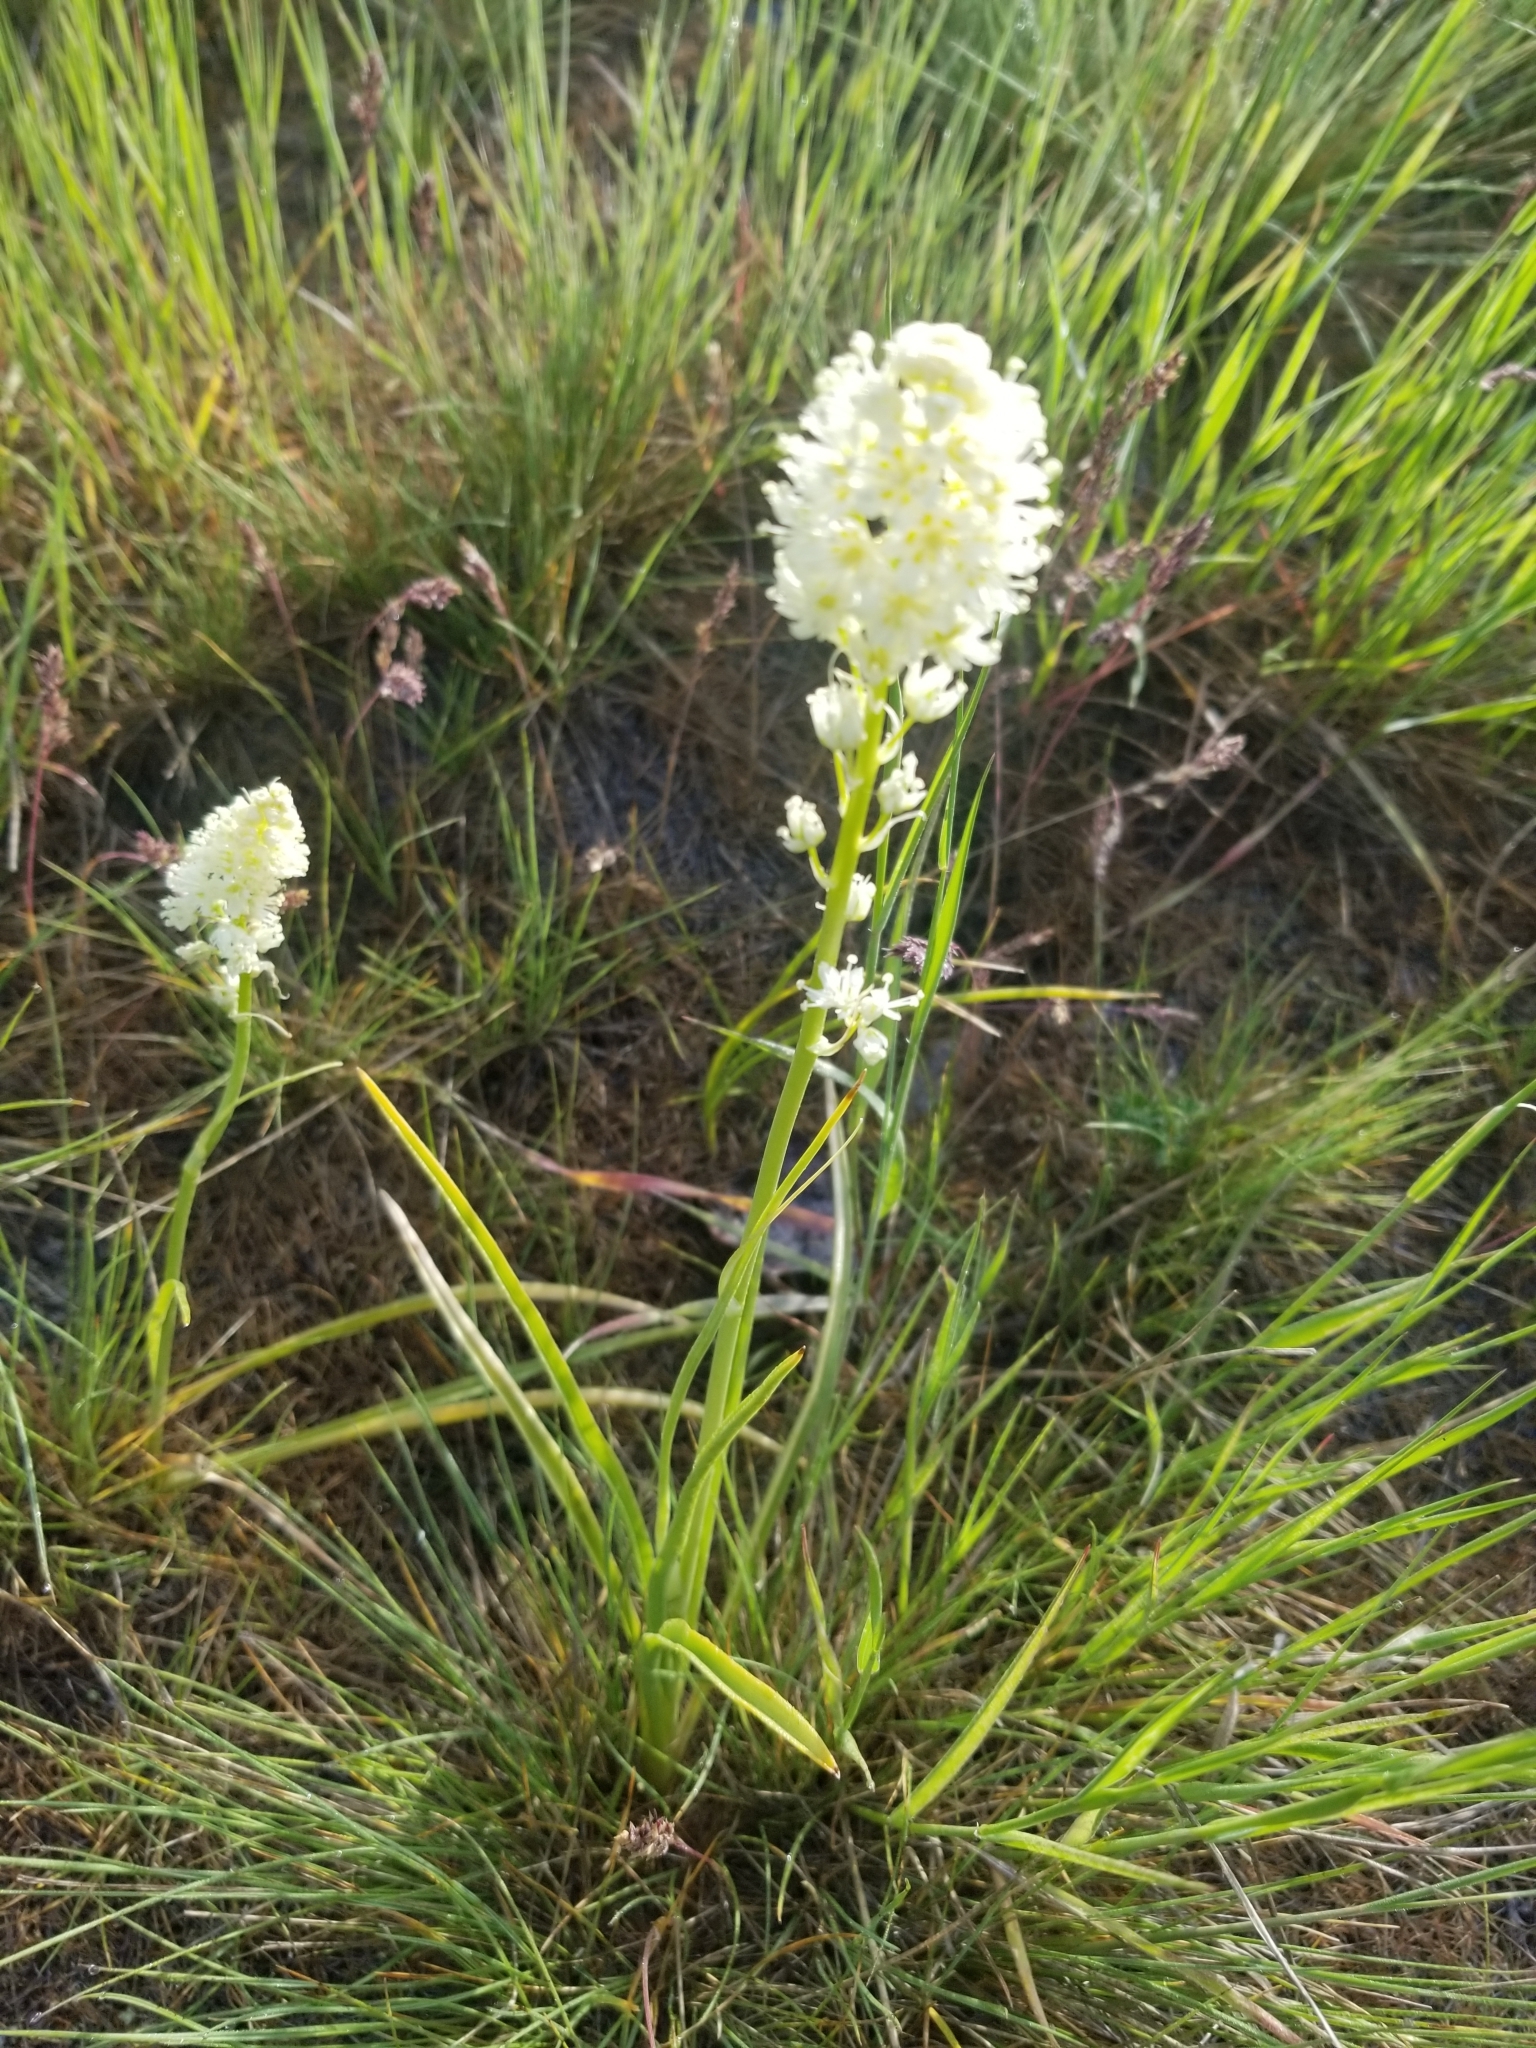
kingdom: Plantae
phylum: Tracheophyta
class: Liliopsida
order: Liliales
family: Melanthiaceae
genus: Toxicoscordion
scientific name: Toxicoscordion venenosum
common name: Meadow death camas
